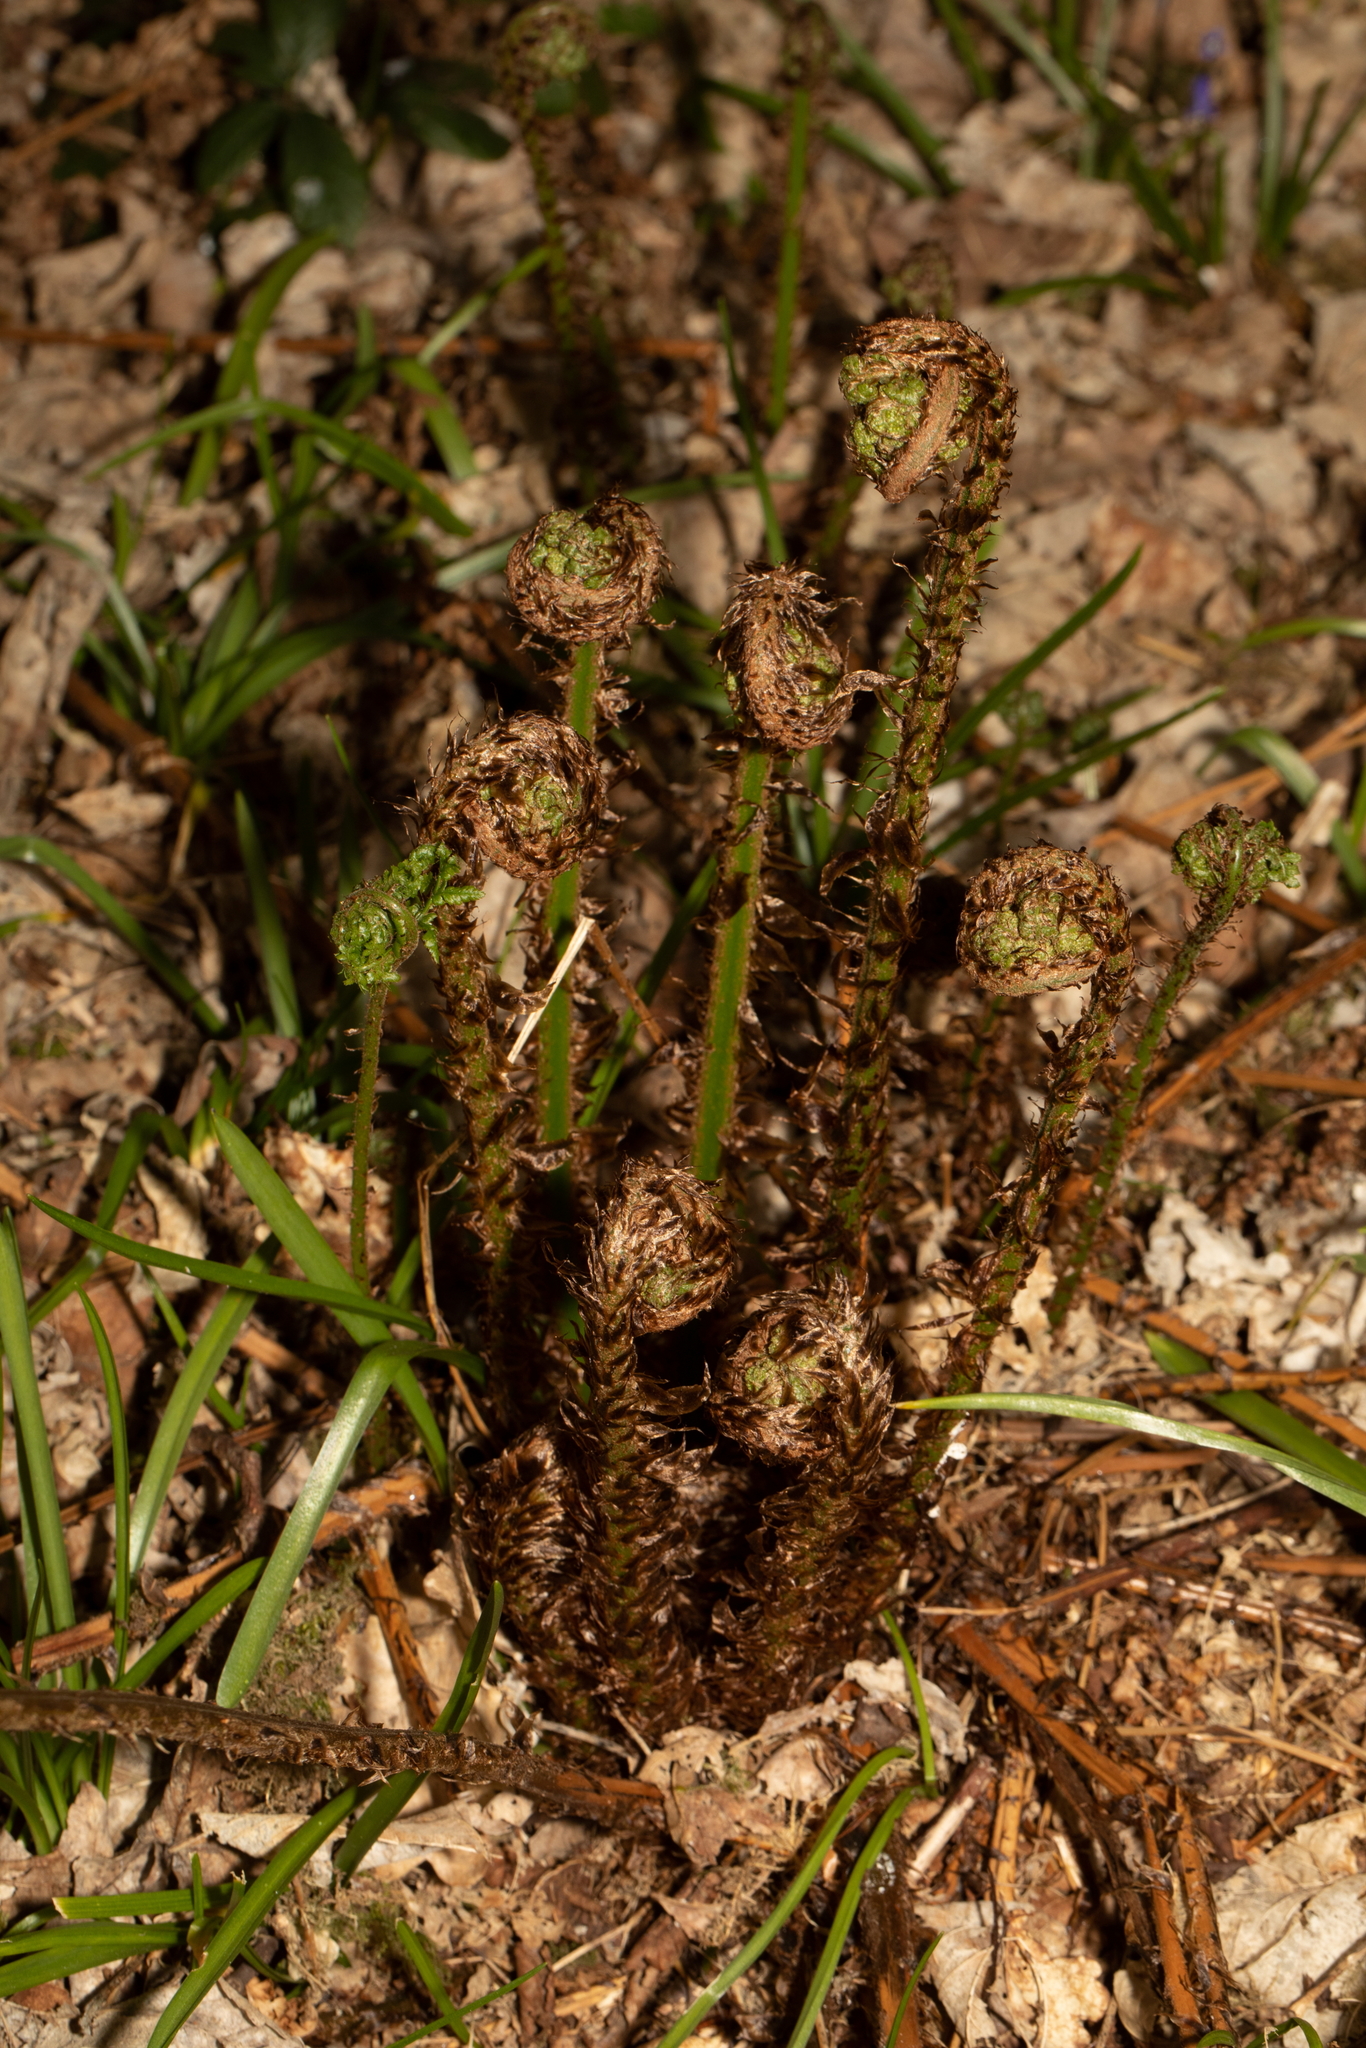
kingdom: Plantae
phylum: Tracheophyta
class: Polypodiopsida
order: Polypodiales
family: Dryopteridaceae
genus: Dryopteris
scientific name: Dryopteris dilatata
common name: Broad buckler-fern
